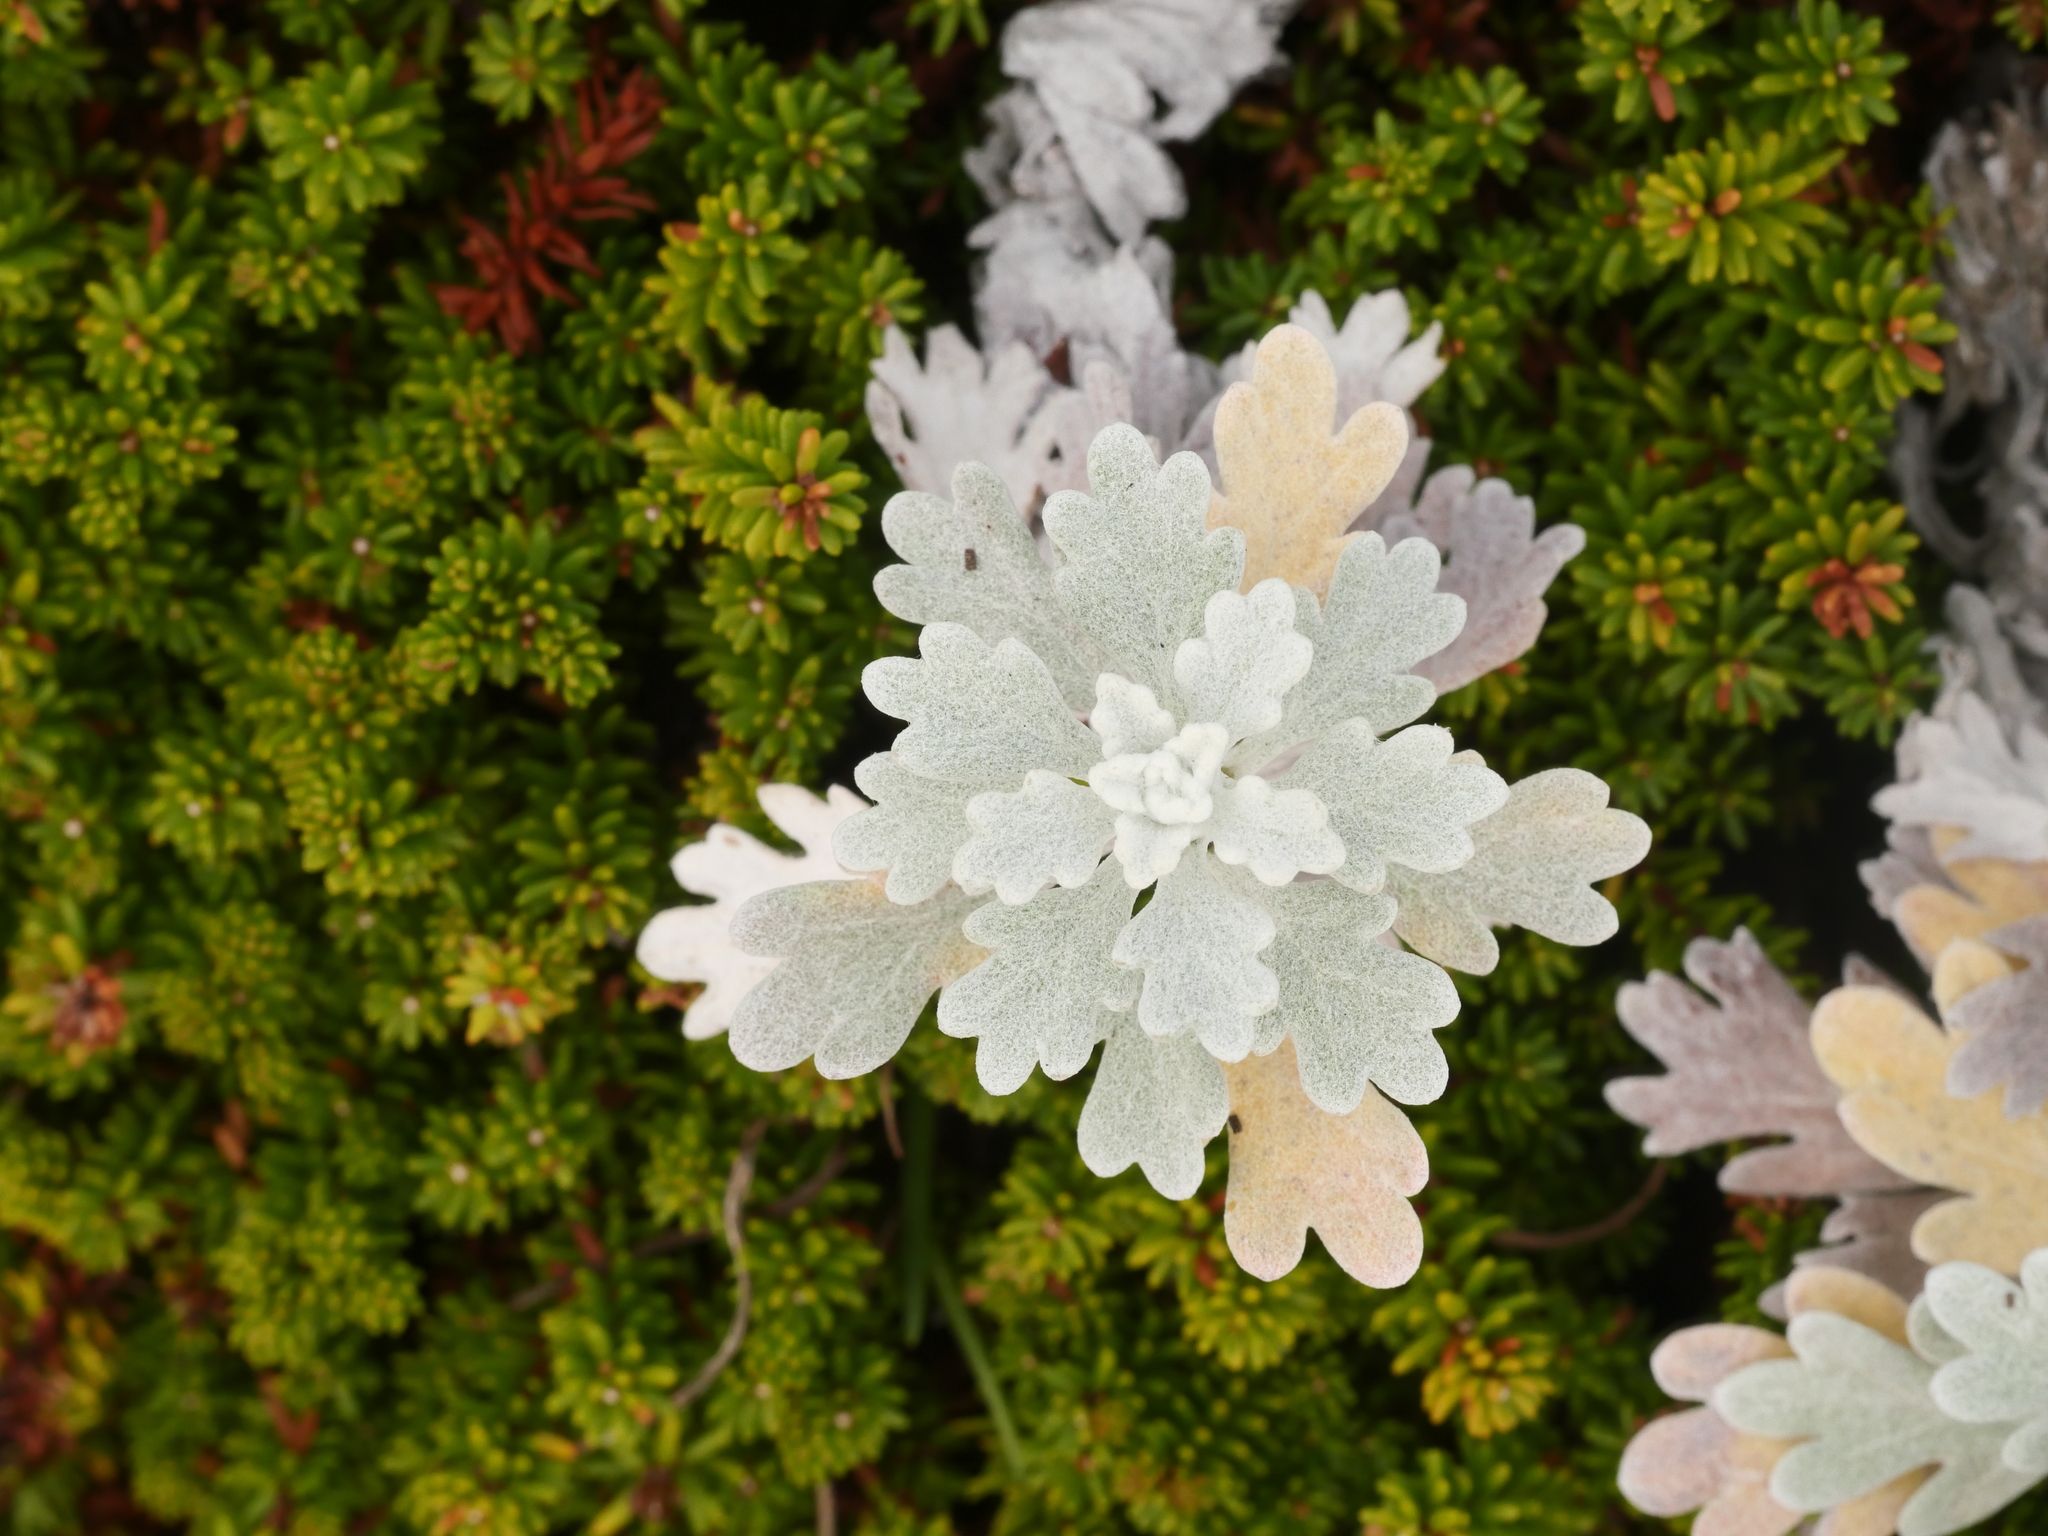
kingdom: Plantae
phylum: Tracheophyta
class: Magnoliopsida
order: Asterales
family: Asteraceae
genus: Artemisia
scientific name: Artemisia stelleriana
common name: Beach wormwood
